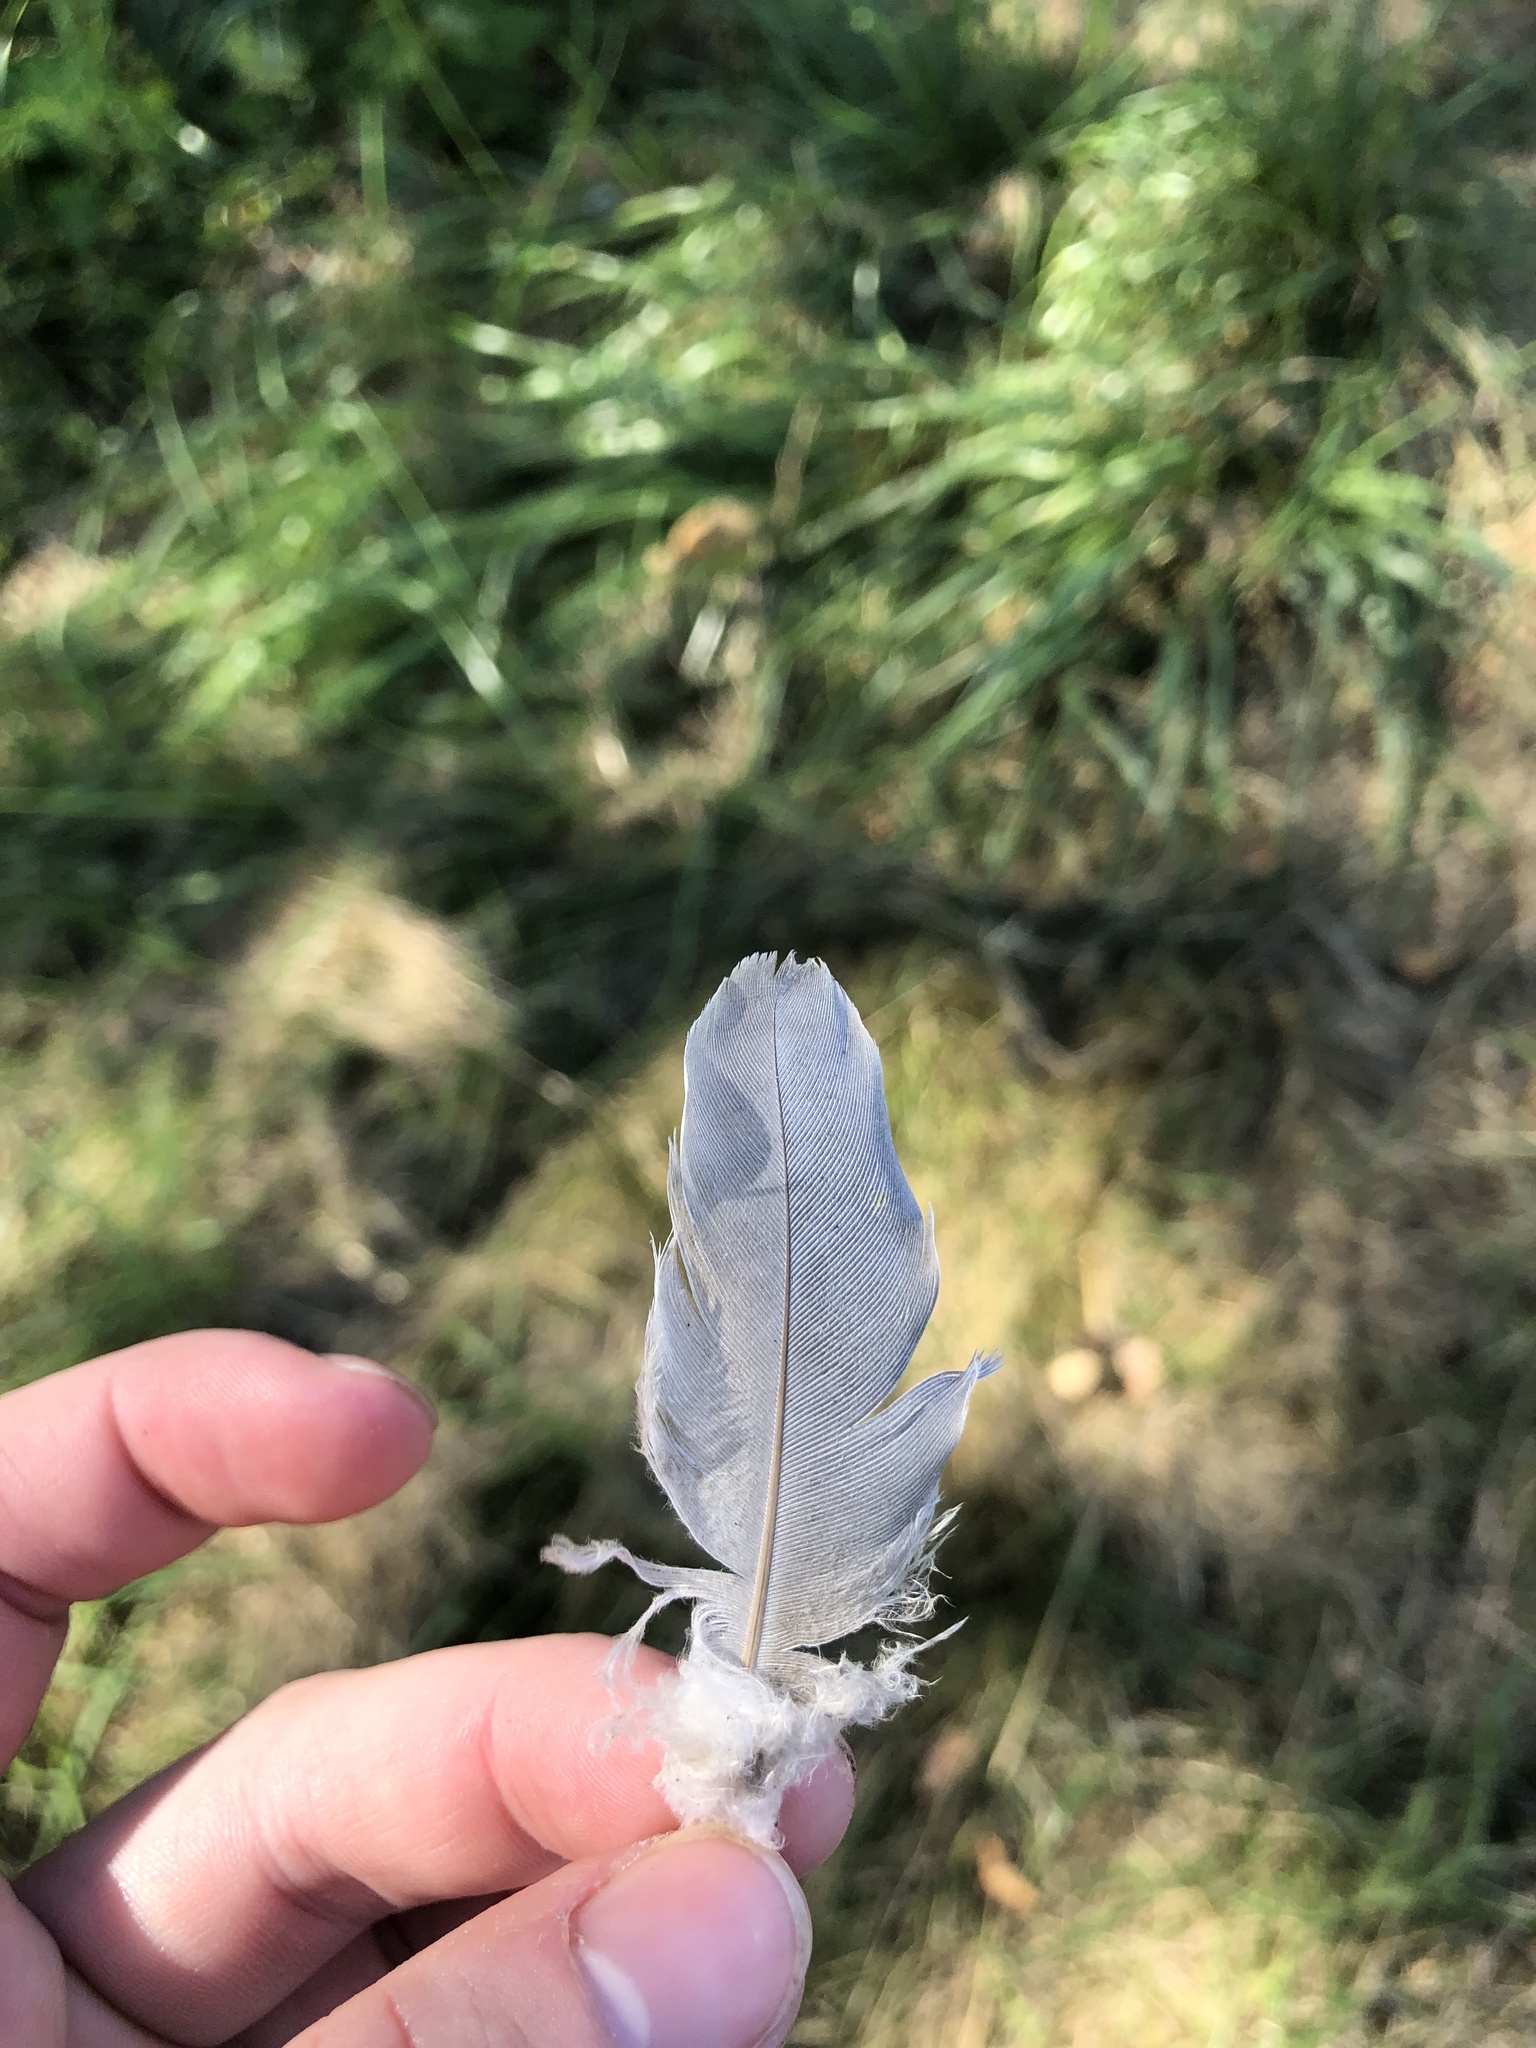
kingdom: Animalia
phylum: Chordata
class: Aves
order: Columbiformes
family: Columbidae
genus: Streptopelia
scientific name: Streptopelia decaocto
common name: Eurasian collared dove
